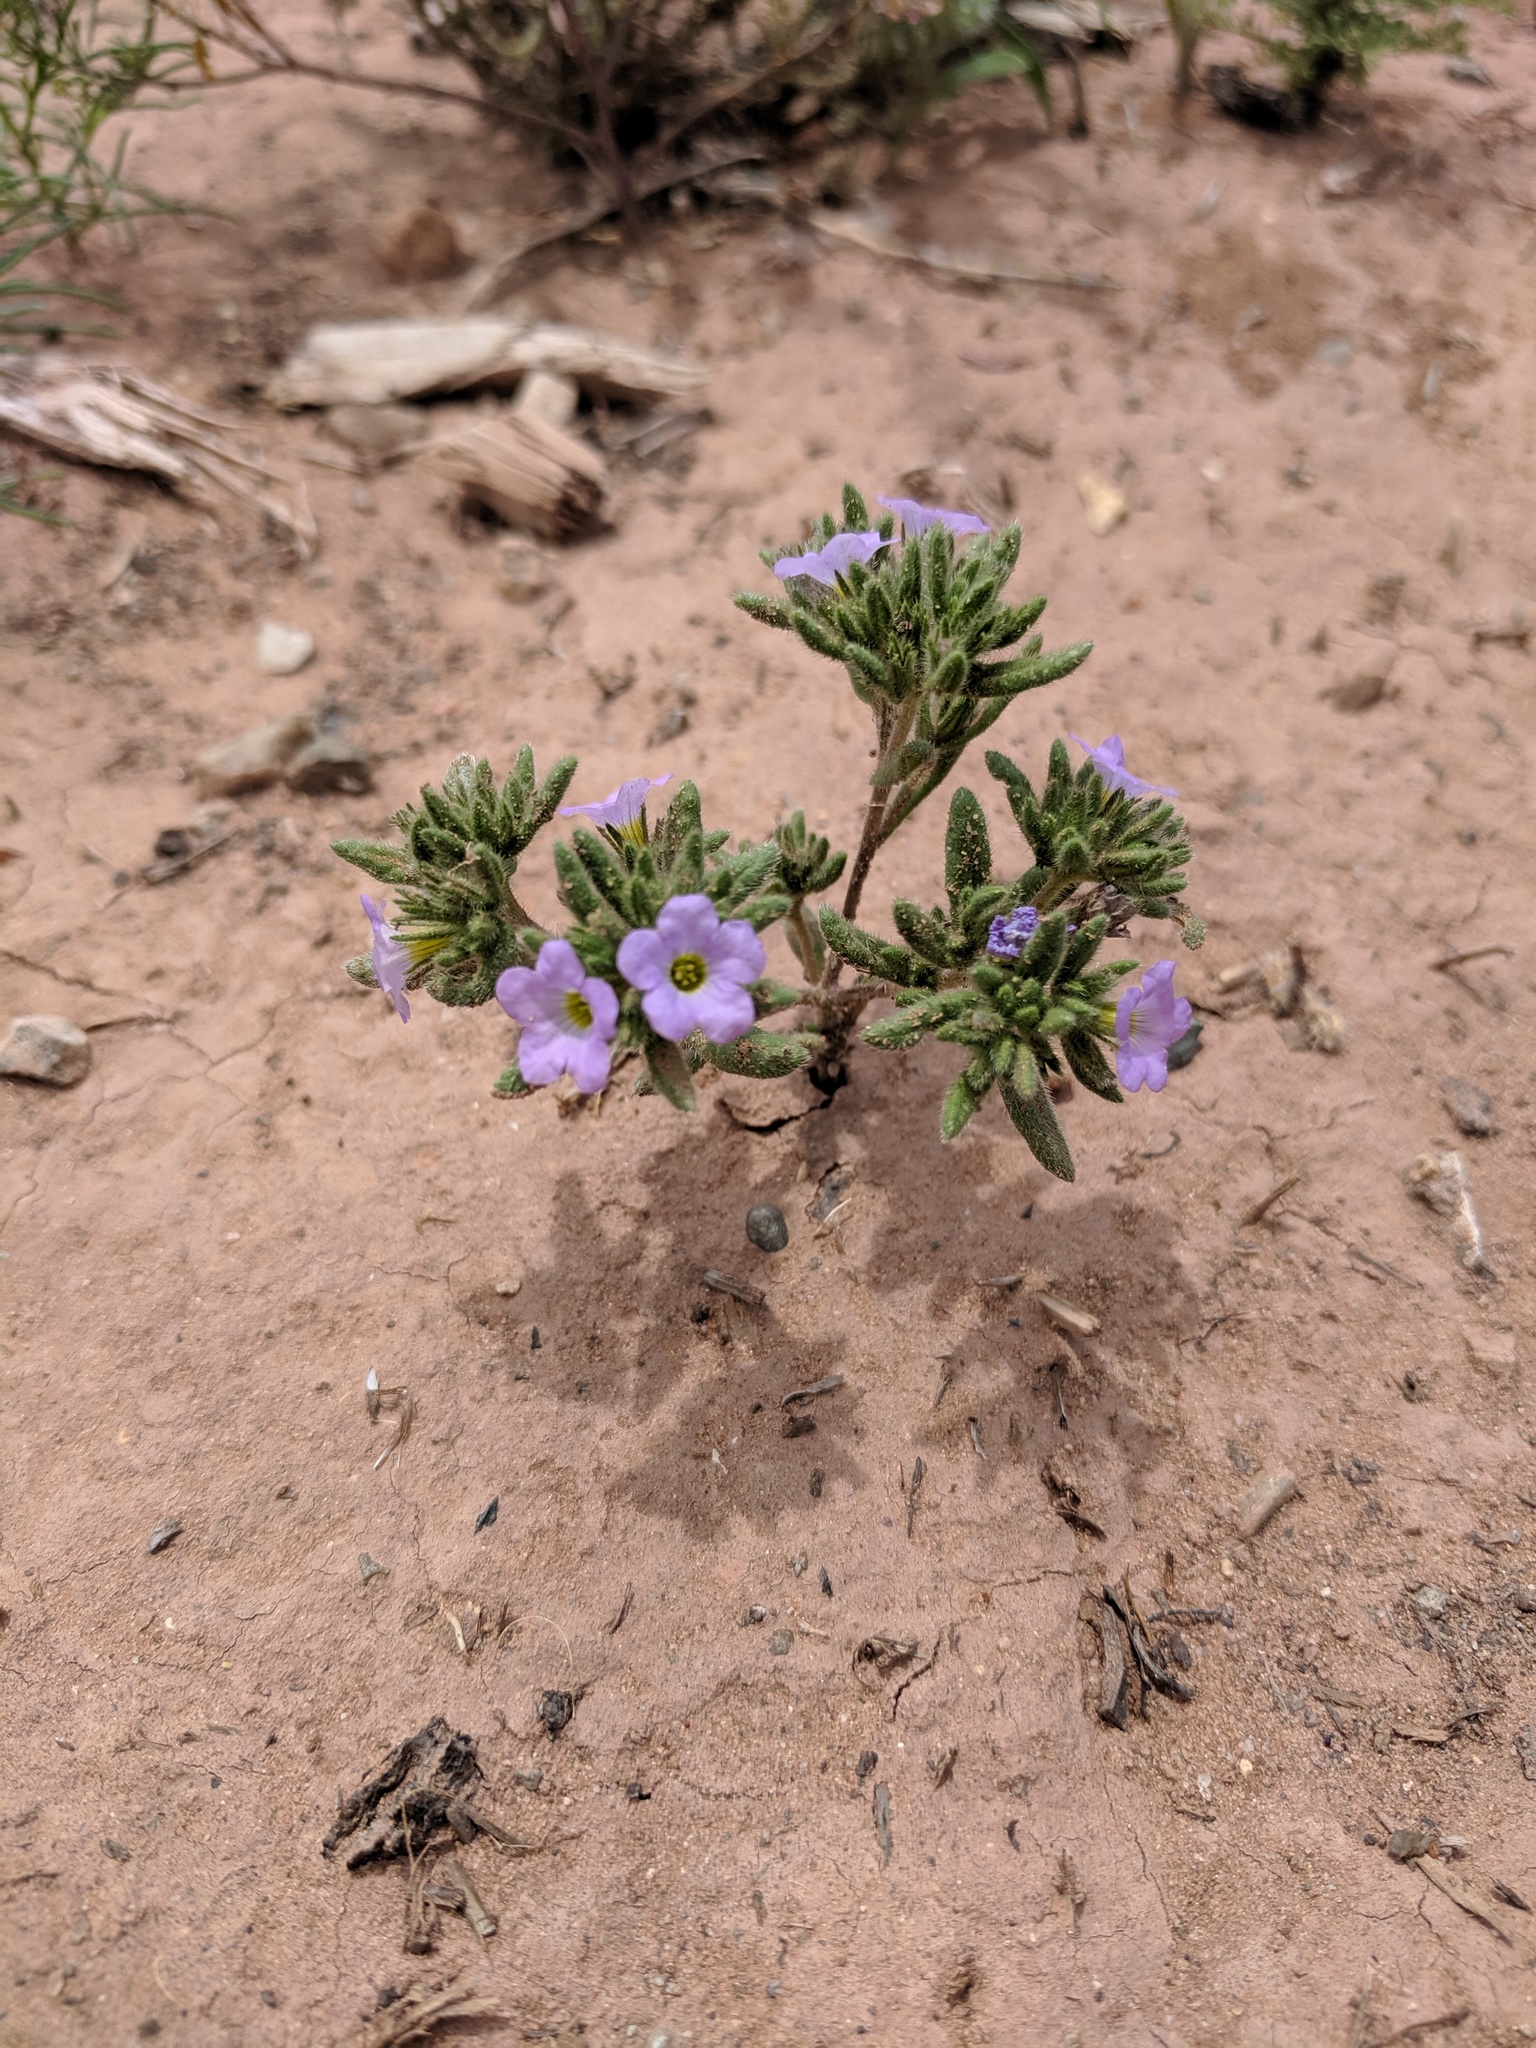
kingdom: Plantae
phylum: Tracheophyta
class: Magnoliopsida
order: Boraginales
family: Namaceae
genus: Nama
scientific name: Nama hispida
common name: Bristly nama
